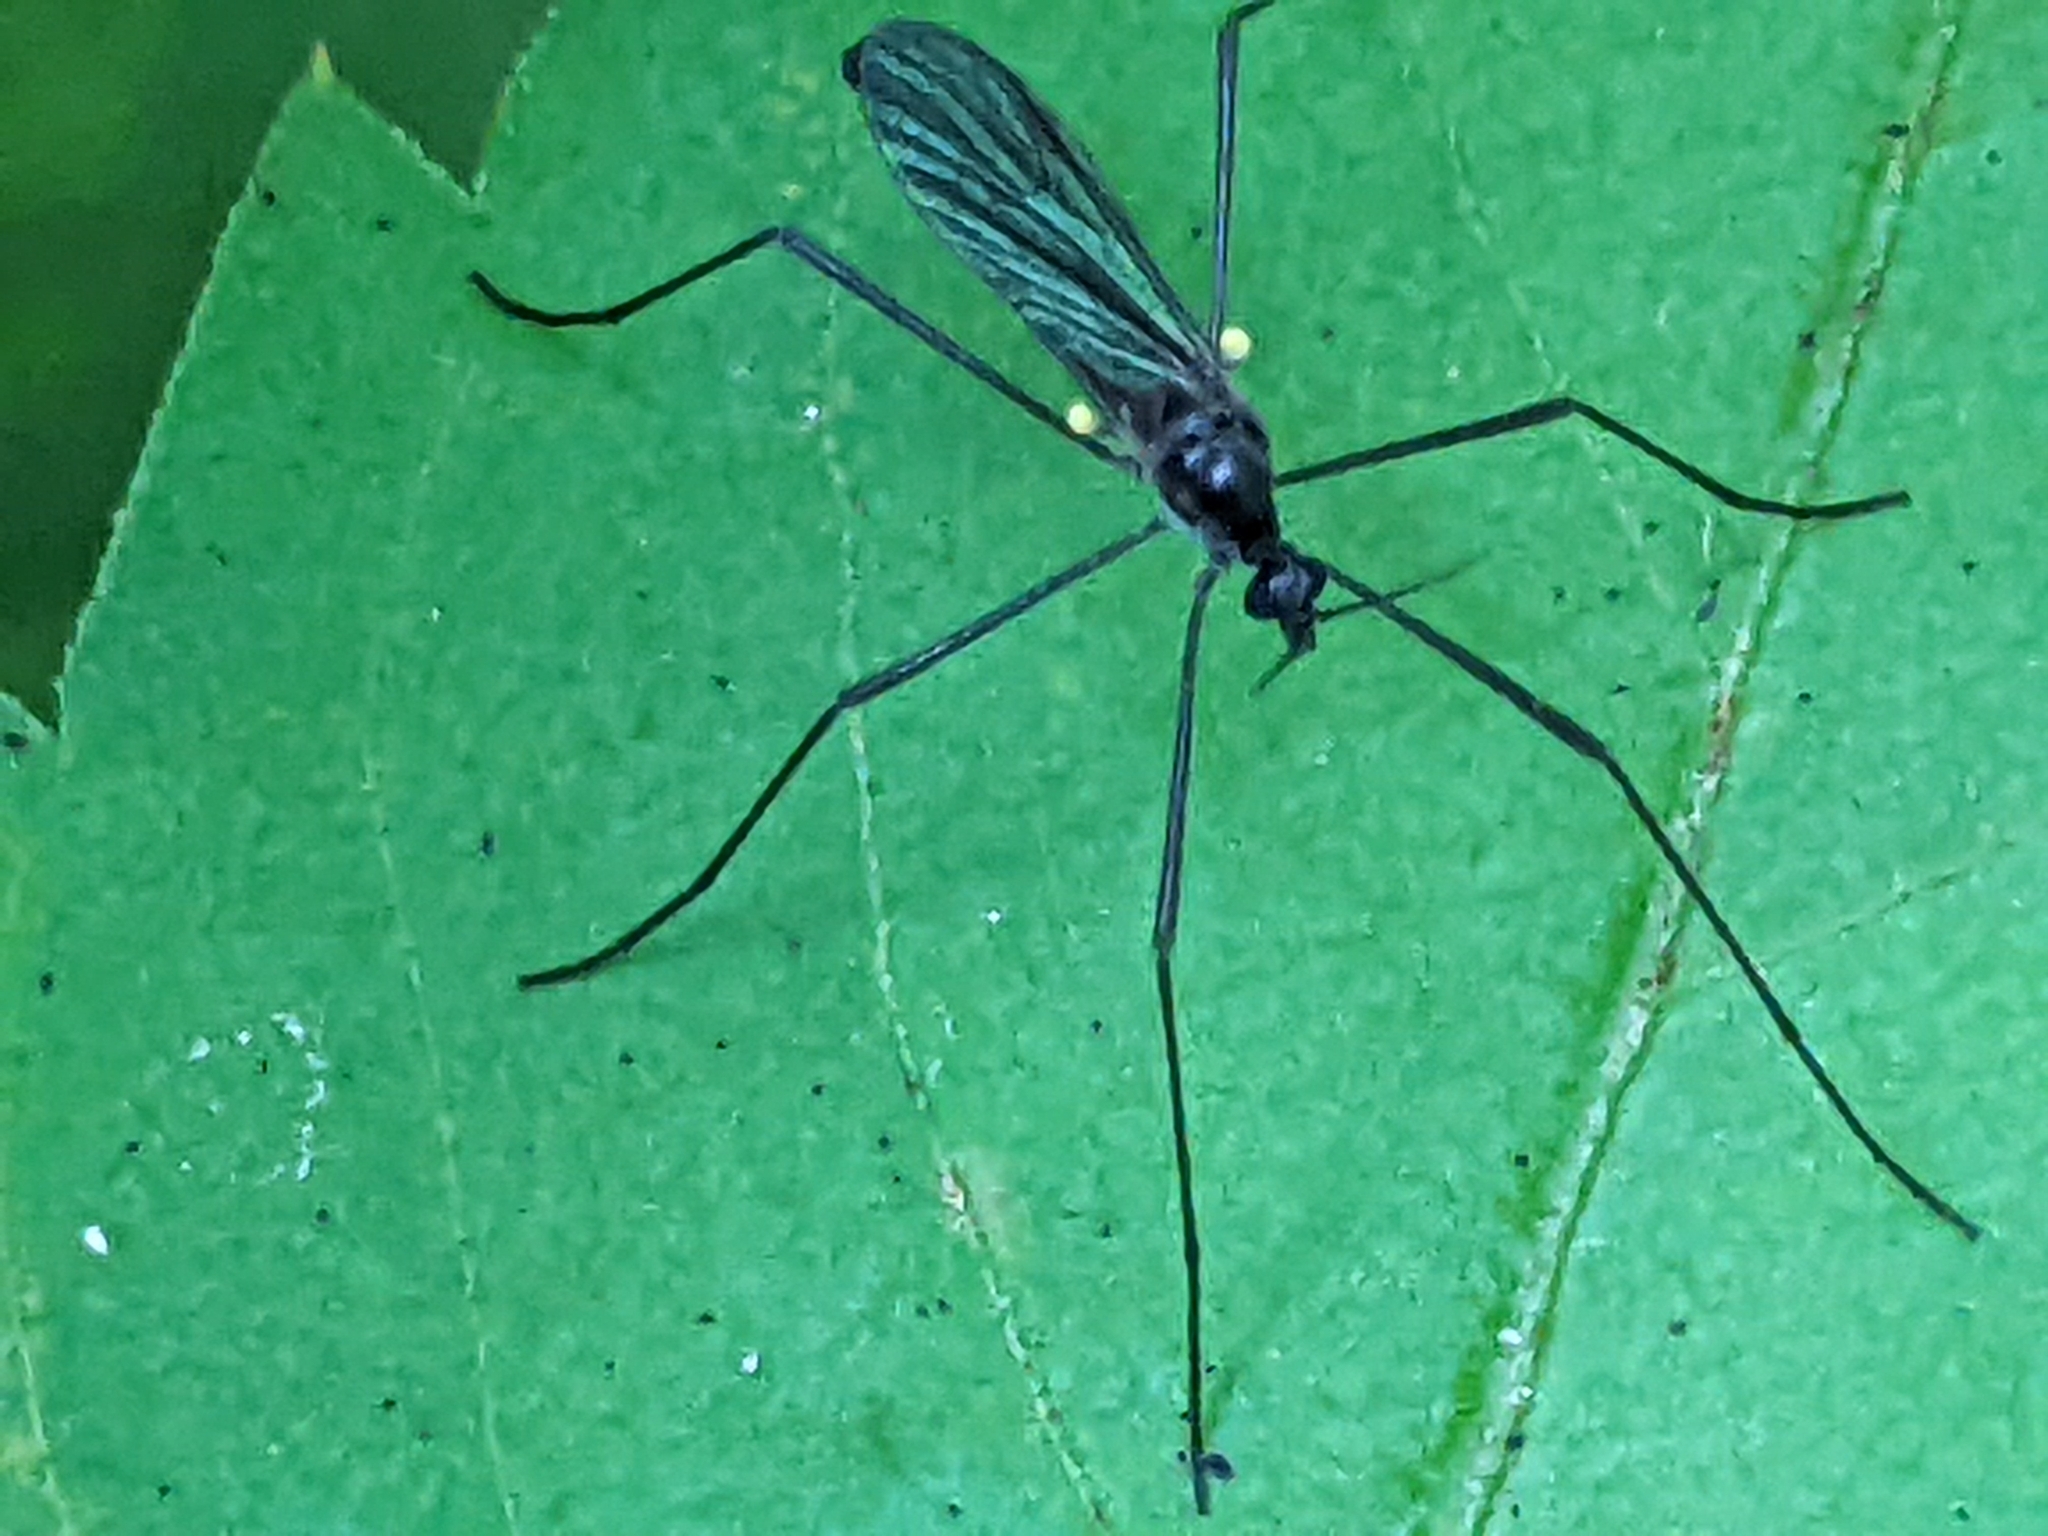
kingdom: Animalia
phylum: Arthropoda
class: Insecta
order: Diptera
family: Limoniidae
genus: Gnophomyia
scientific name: Gnophomyia tristissima
